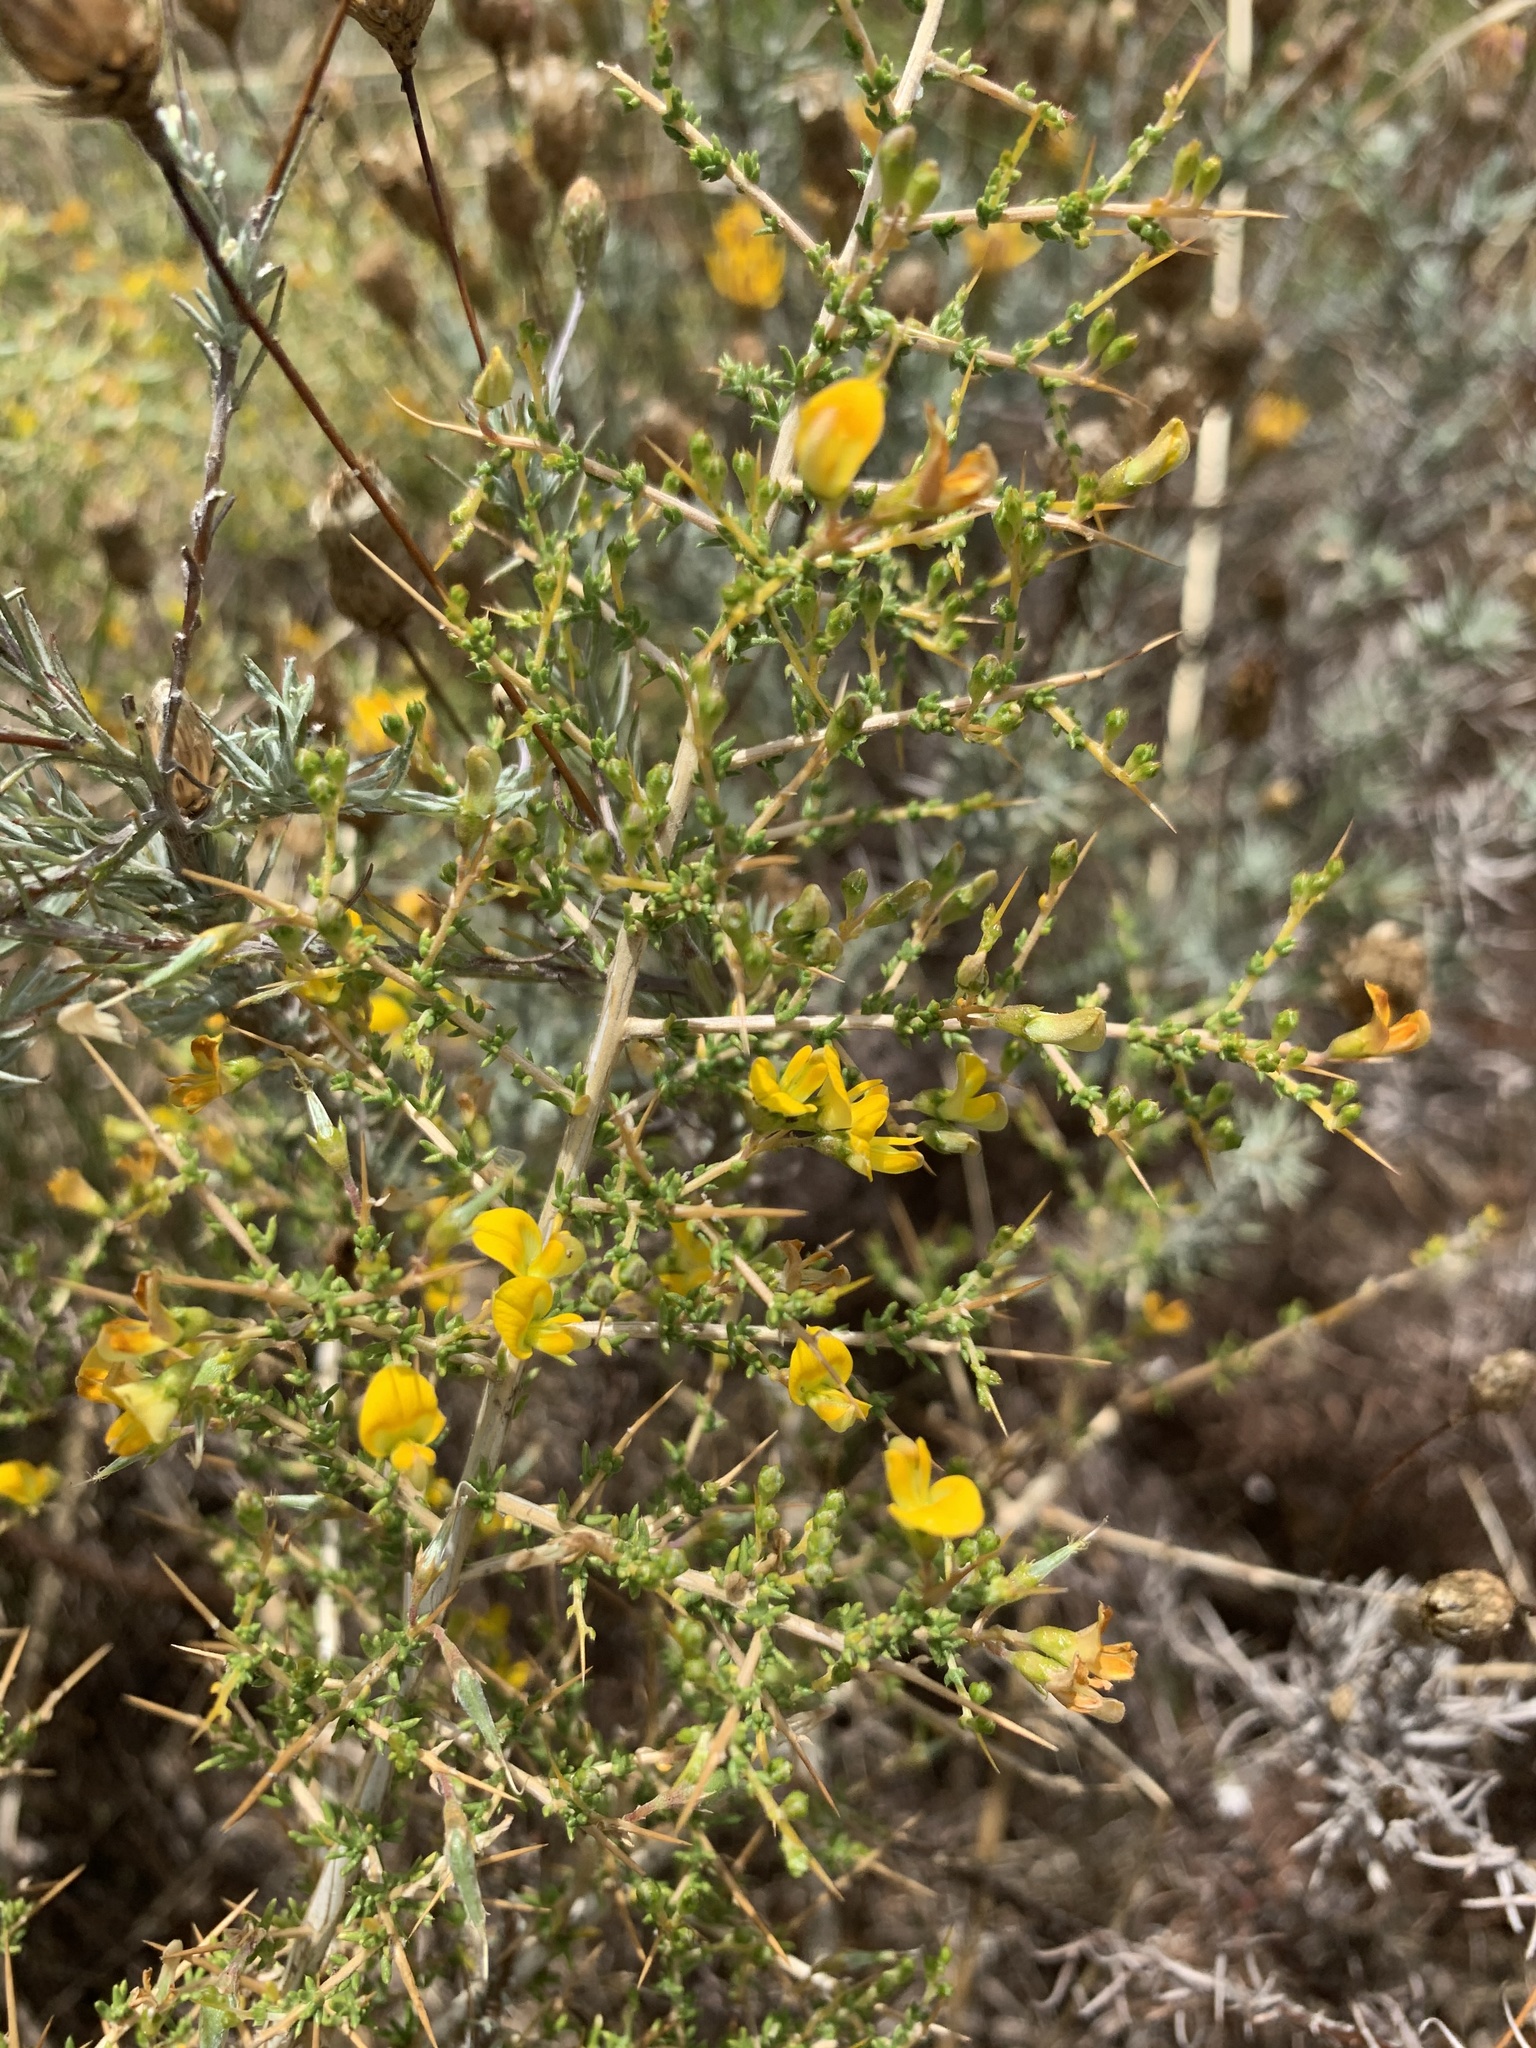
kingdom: Plantae
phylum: Tracheophyta
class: Magnoliopsida
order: Fabales
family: Fabaceae
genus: Aspalathus
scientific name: Aspalathus spinosa
